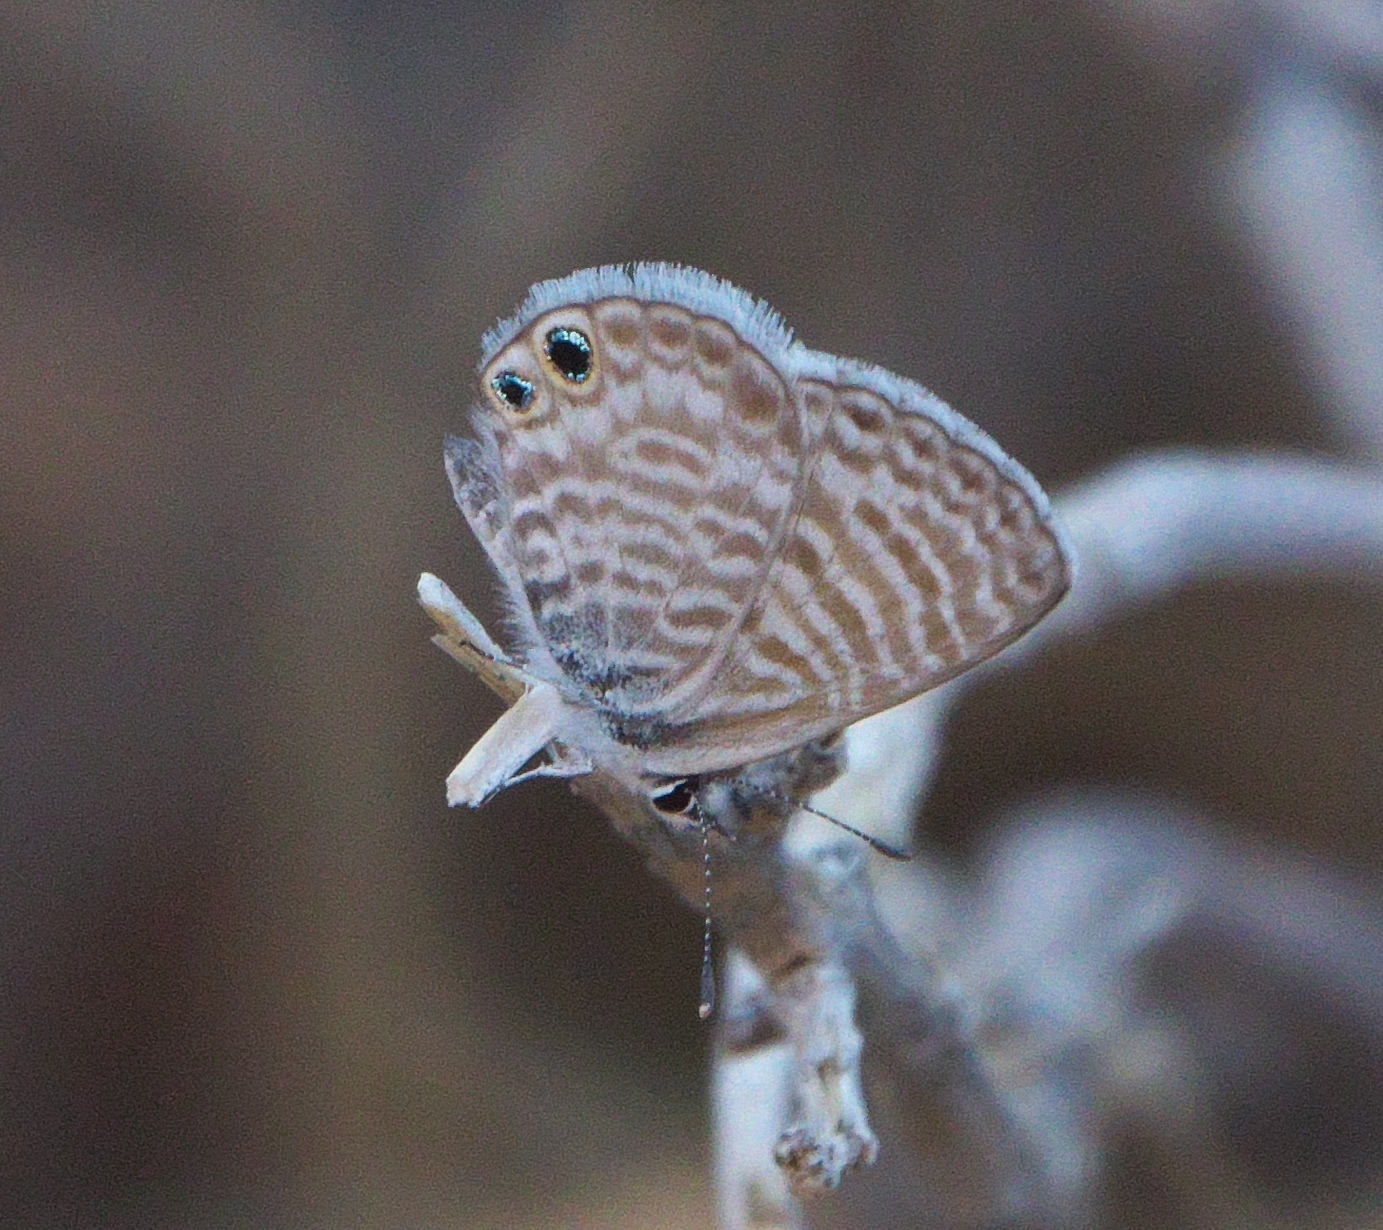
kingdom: Animalia
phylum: Arthropoda
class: Insecta
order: Lepidoptera
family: Lycaenidae
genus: Leptotes
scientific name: Leptotes marina
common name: Marine blue
